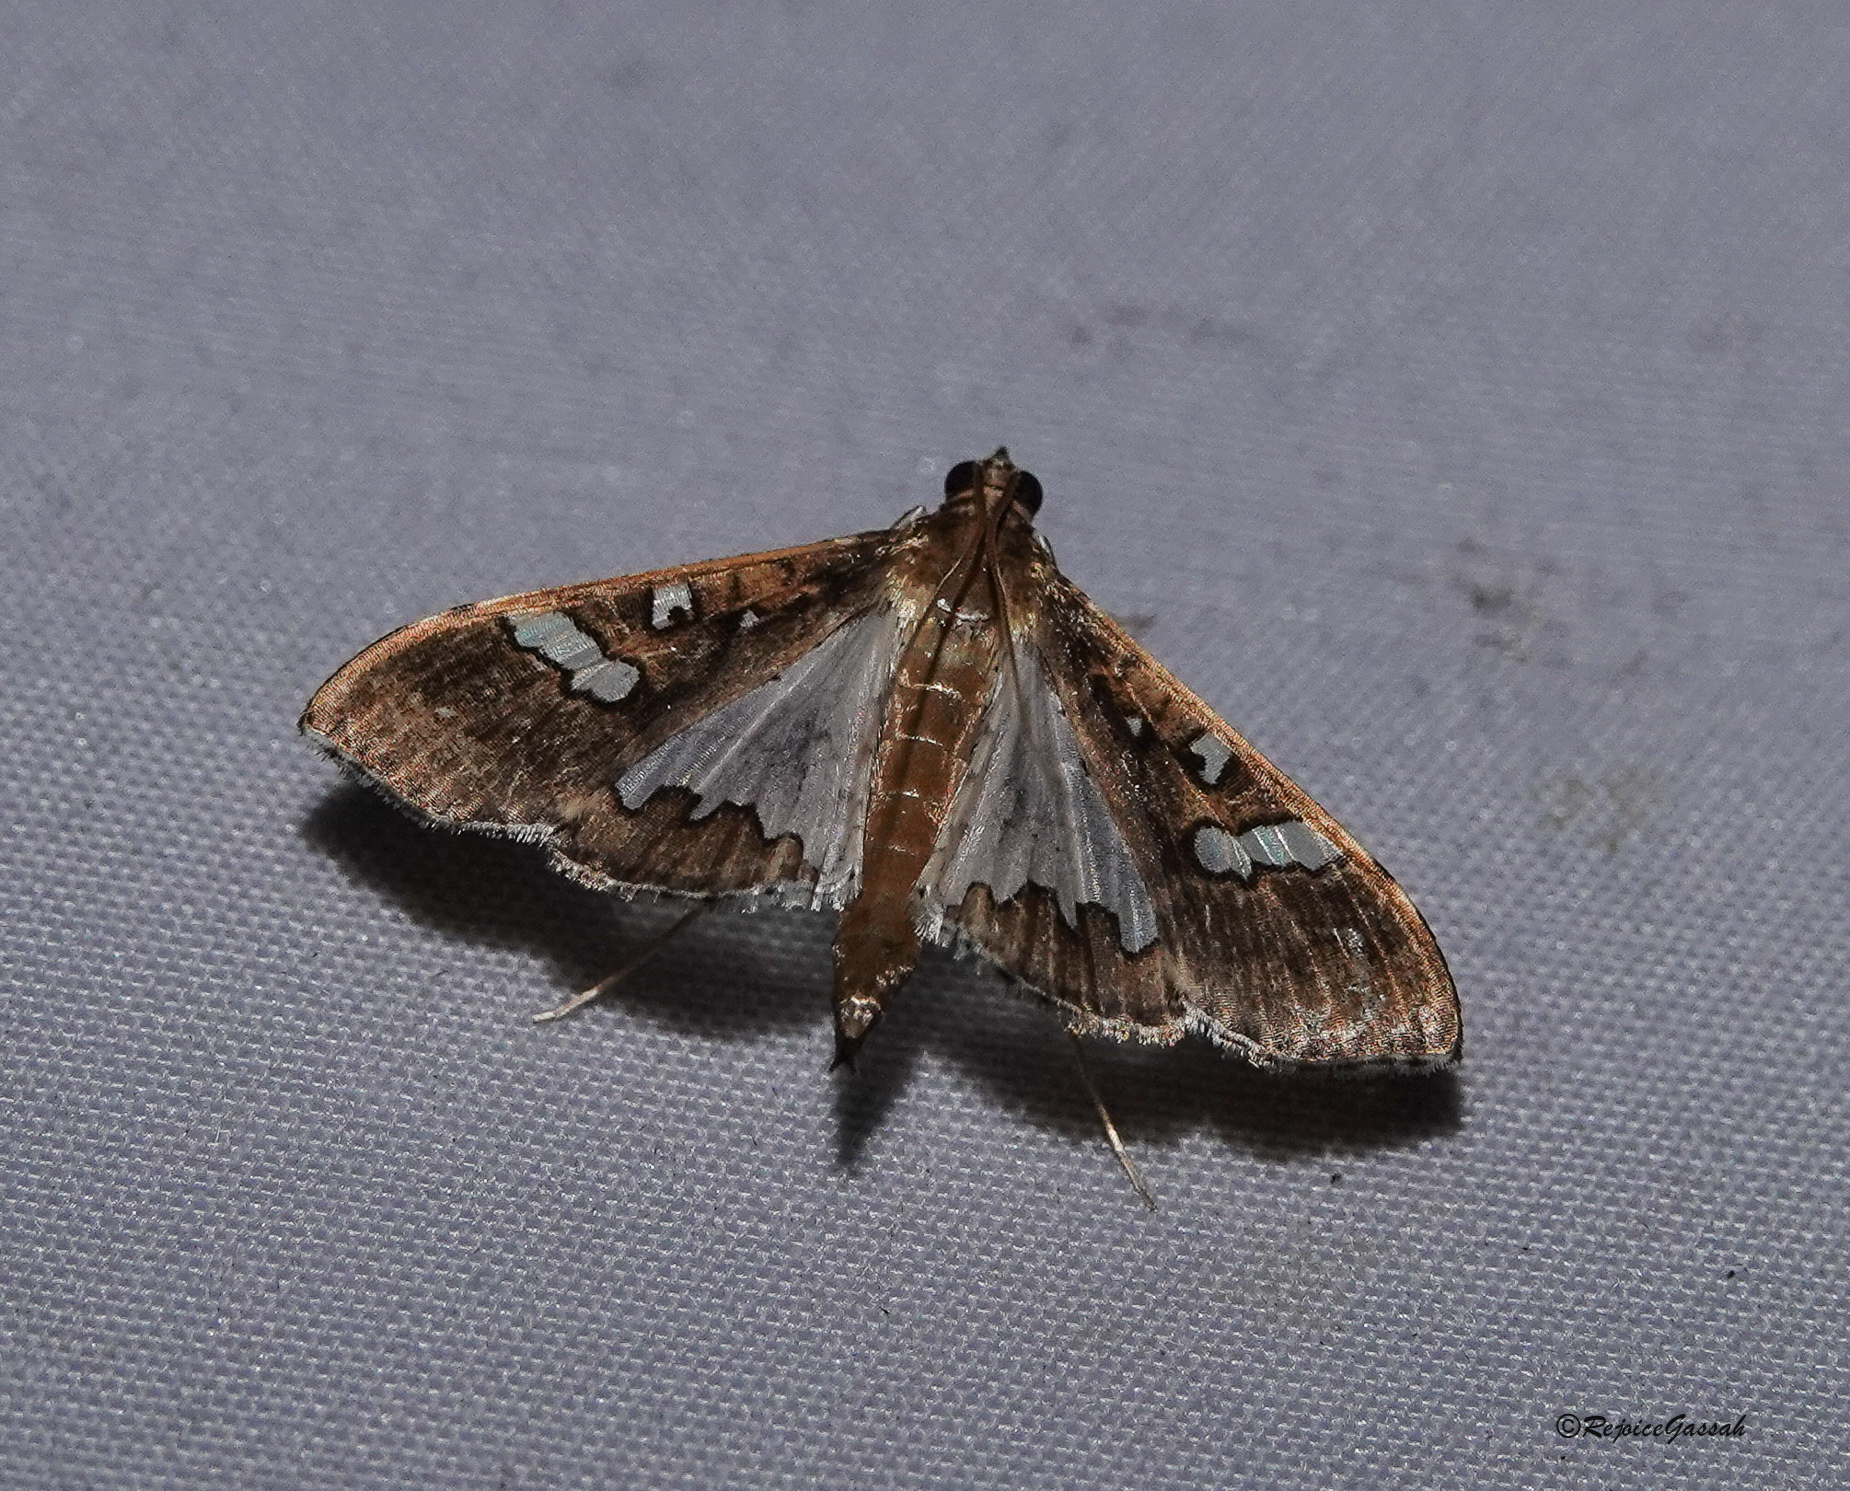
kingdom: Animalia
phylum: Arthropoda
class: Insecta
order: Lepidoptera
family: Crambidae
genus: Maruca
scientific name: Maruca vitrata
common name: Maruca pod borer
